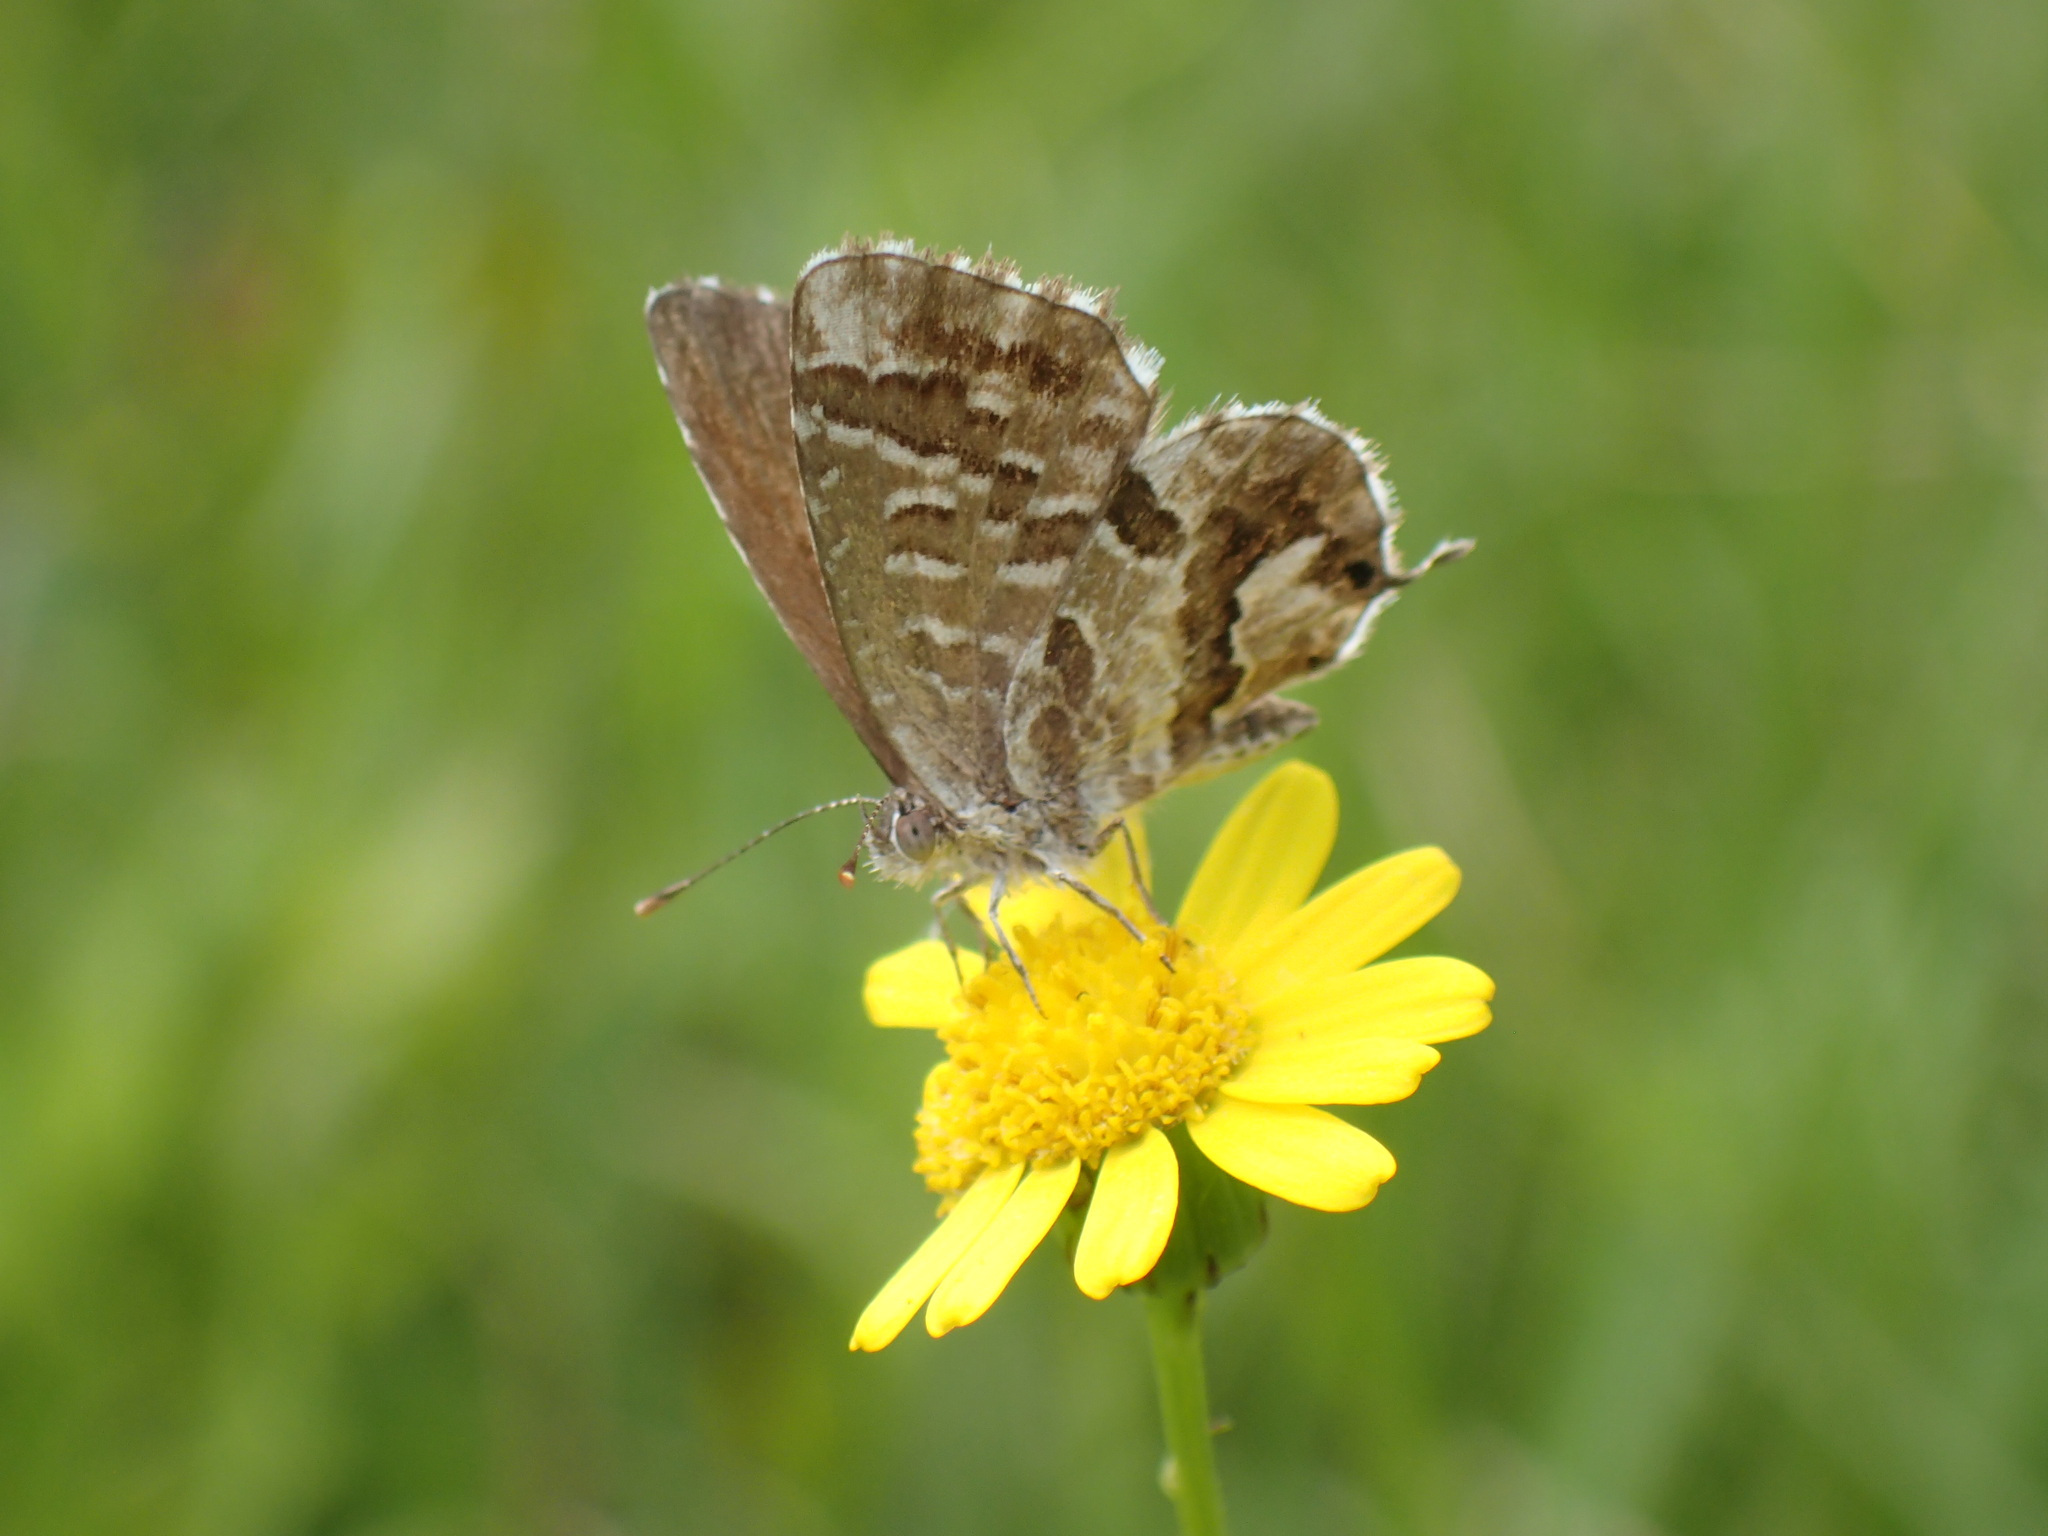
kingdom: Animalia
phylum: Arthropoda
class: Insecta
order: Lepidoptera
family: Lycaenidae
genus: Cacyreus
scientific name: Cacyreus marshalli
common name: Geranium bronze
